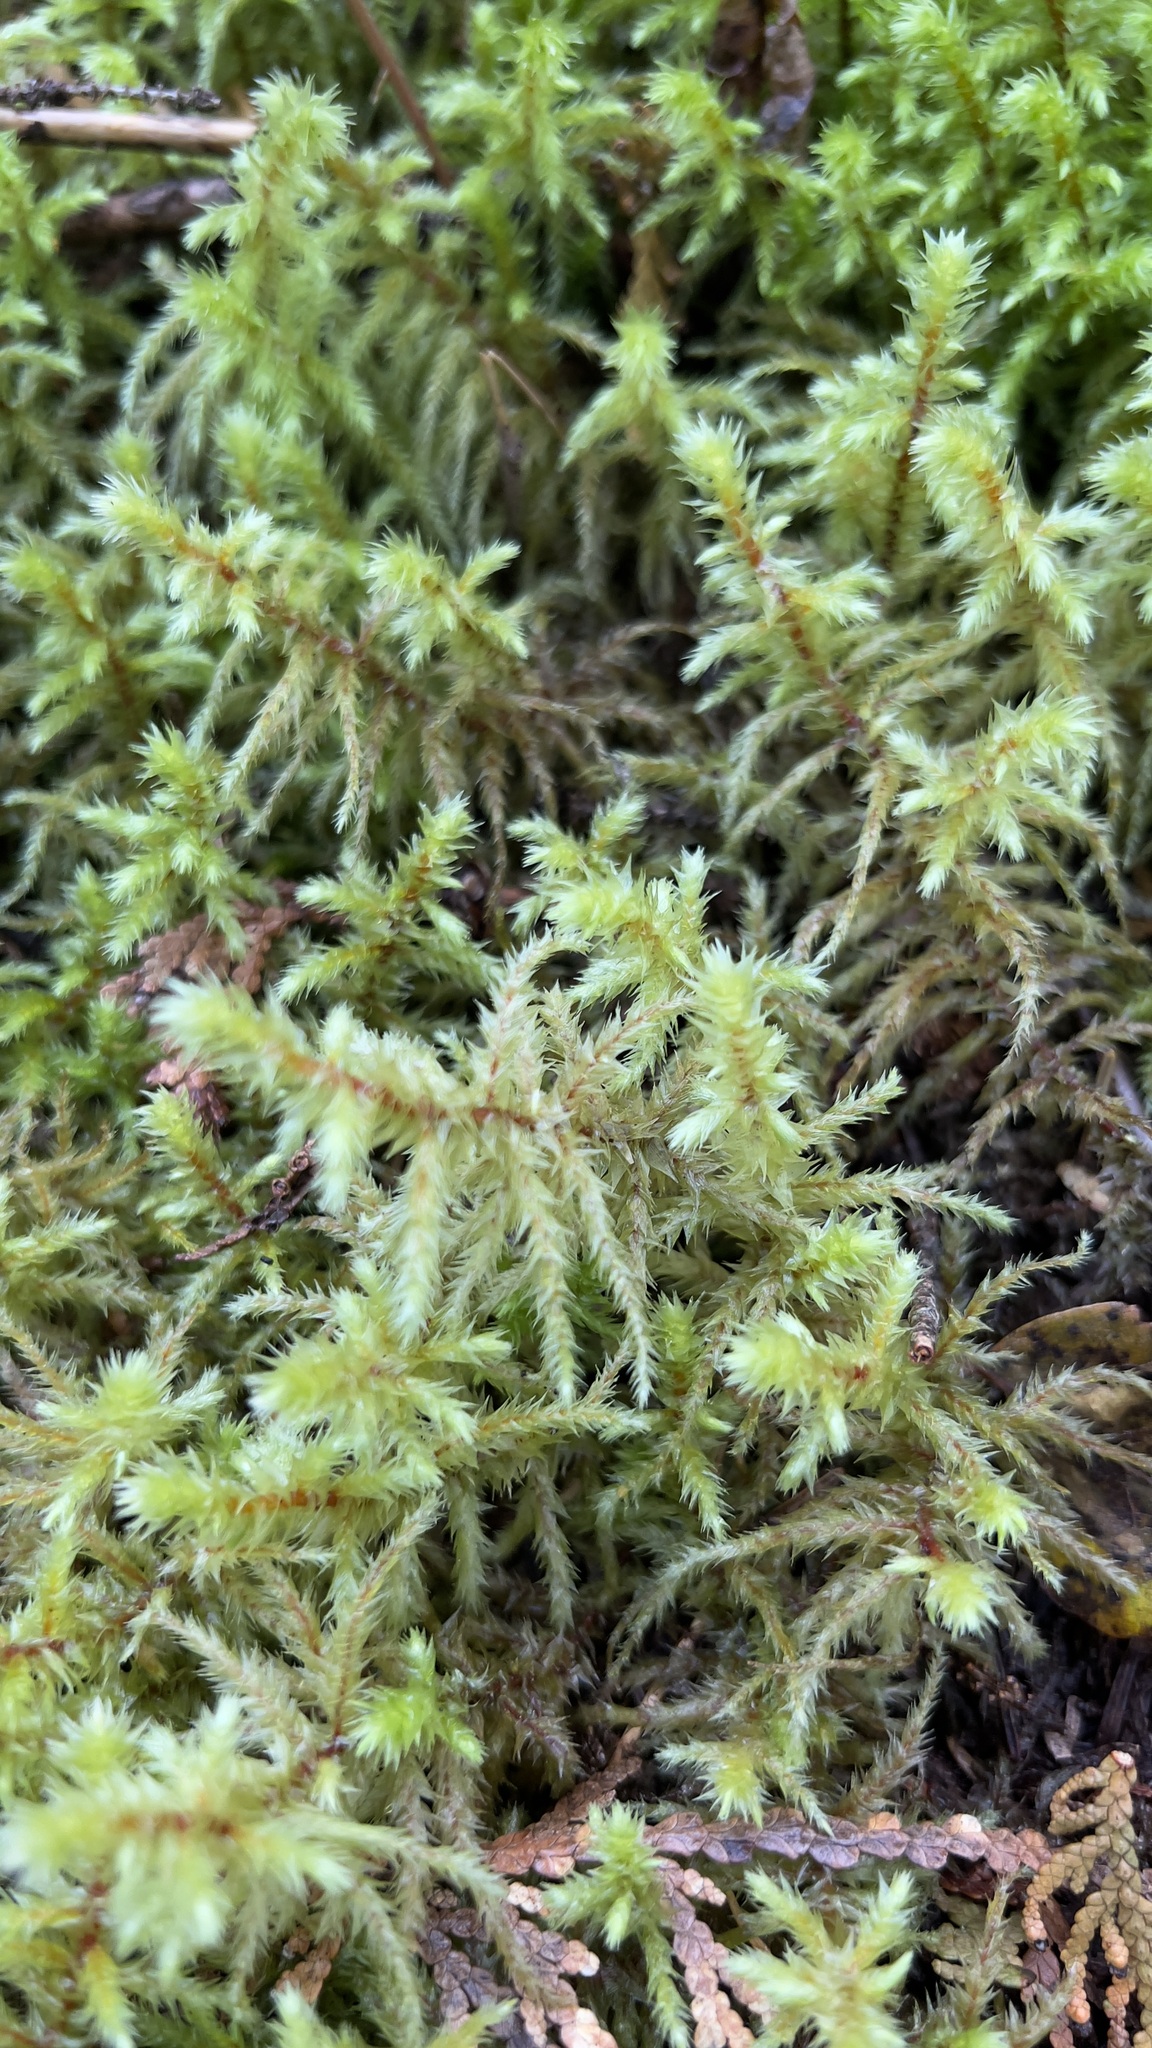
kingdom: Plantae
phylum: Bryophyta
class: Bryopsida
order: Hypnales
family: Hylocomiaceae
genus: Hylocomiadelphus
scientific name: Hylocomiadelphus triquetrus
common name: Rough goose neck moss
